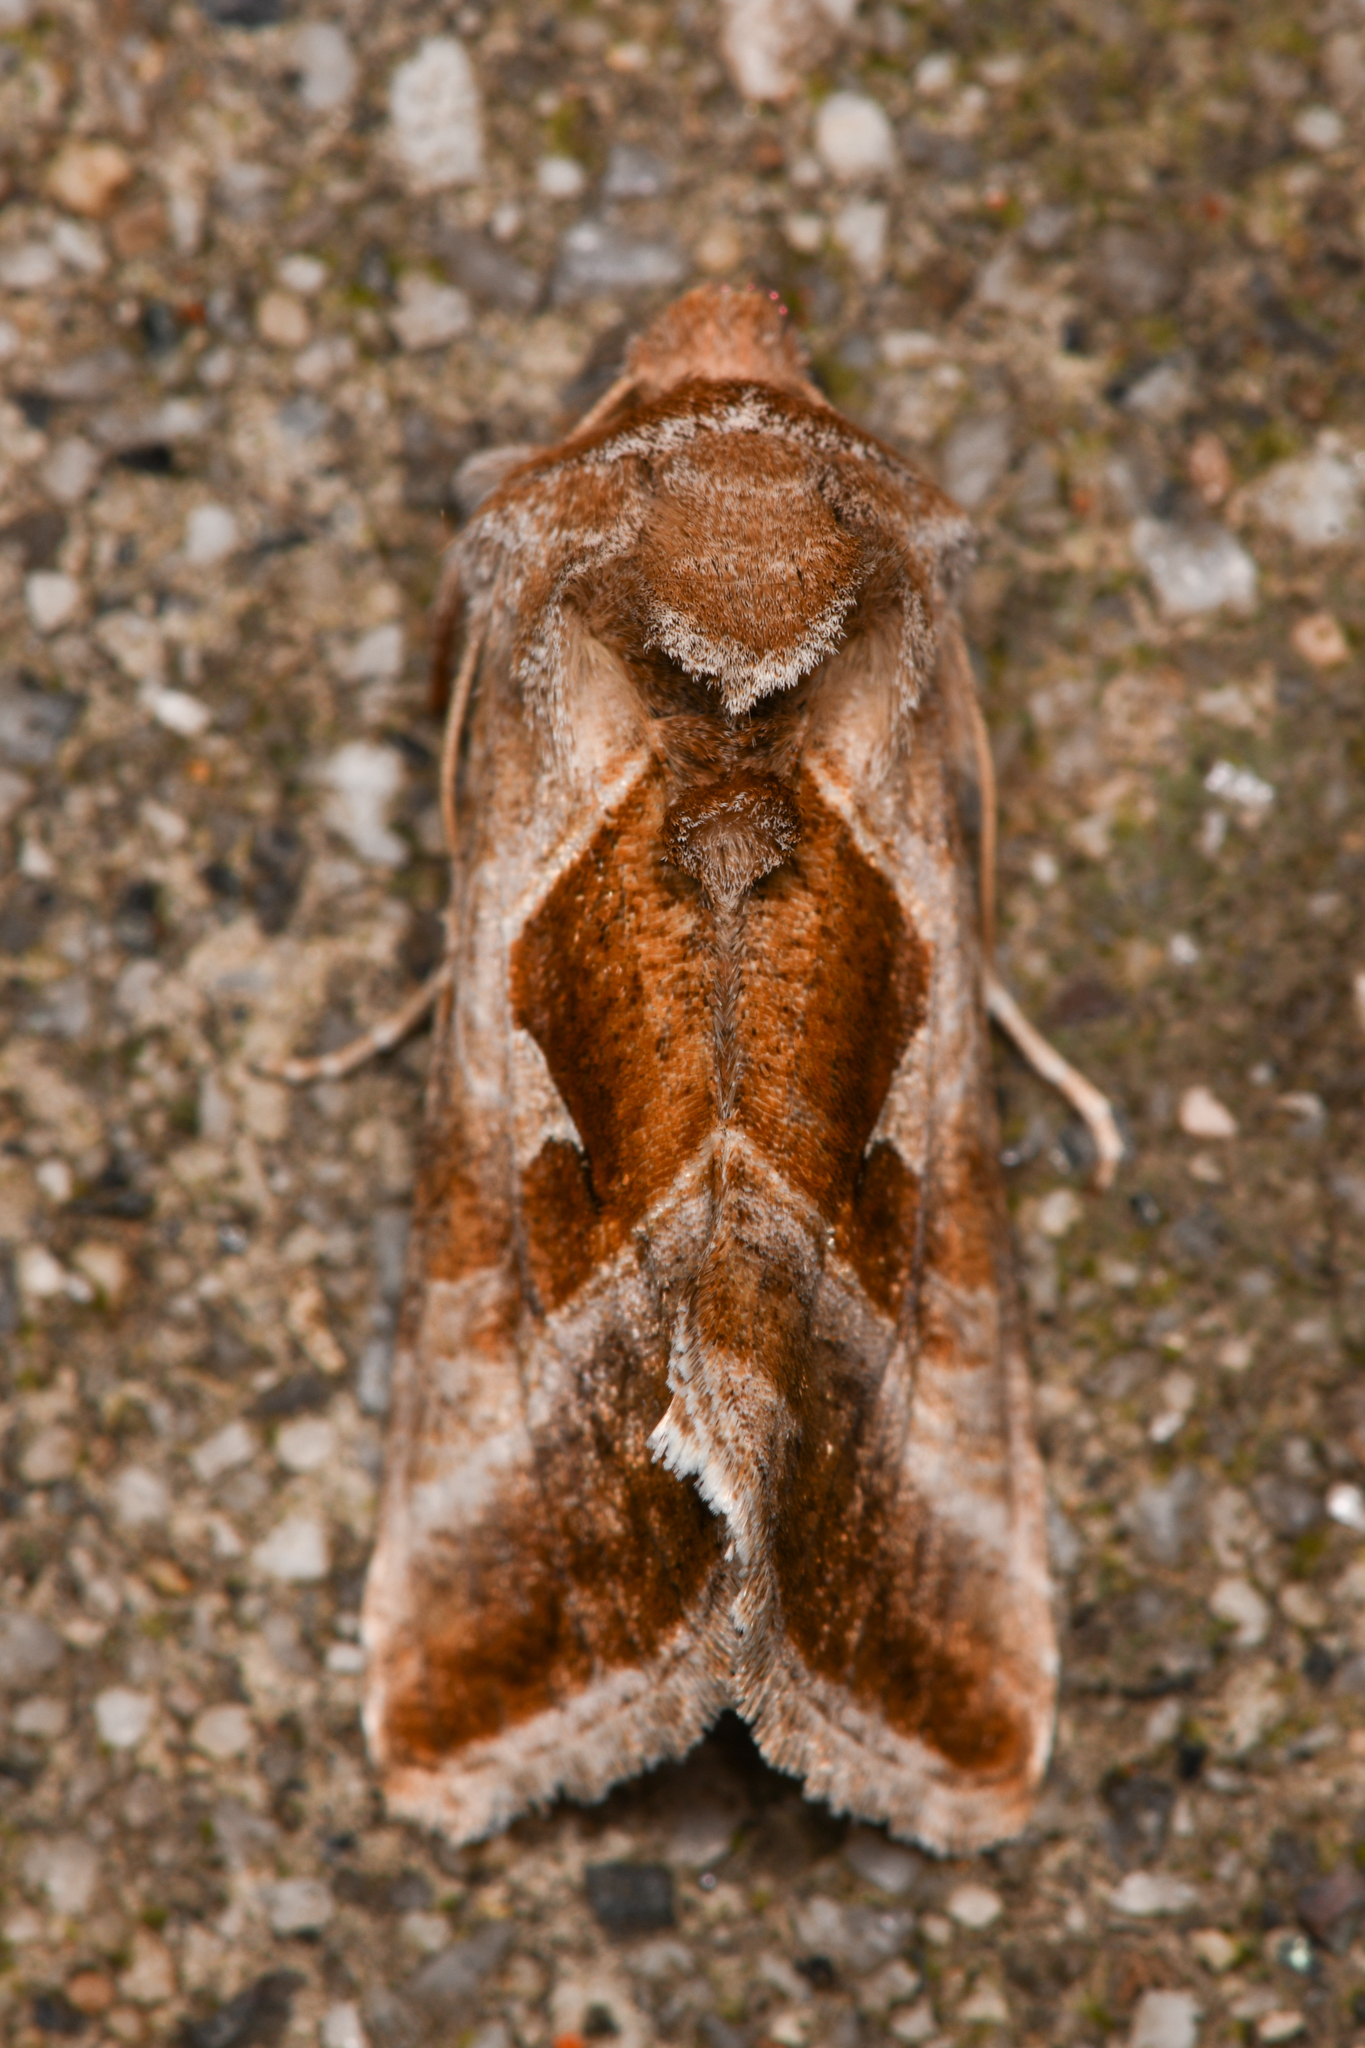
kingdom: Animalia
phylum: Arthropoda
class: Insecta
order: Lepidoptera
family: Noctuidae
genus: Autographa
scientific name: Autographa pasiphaeia
